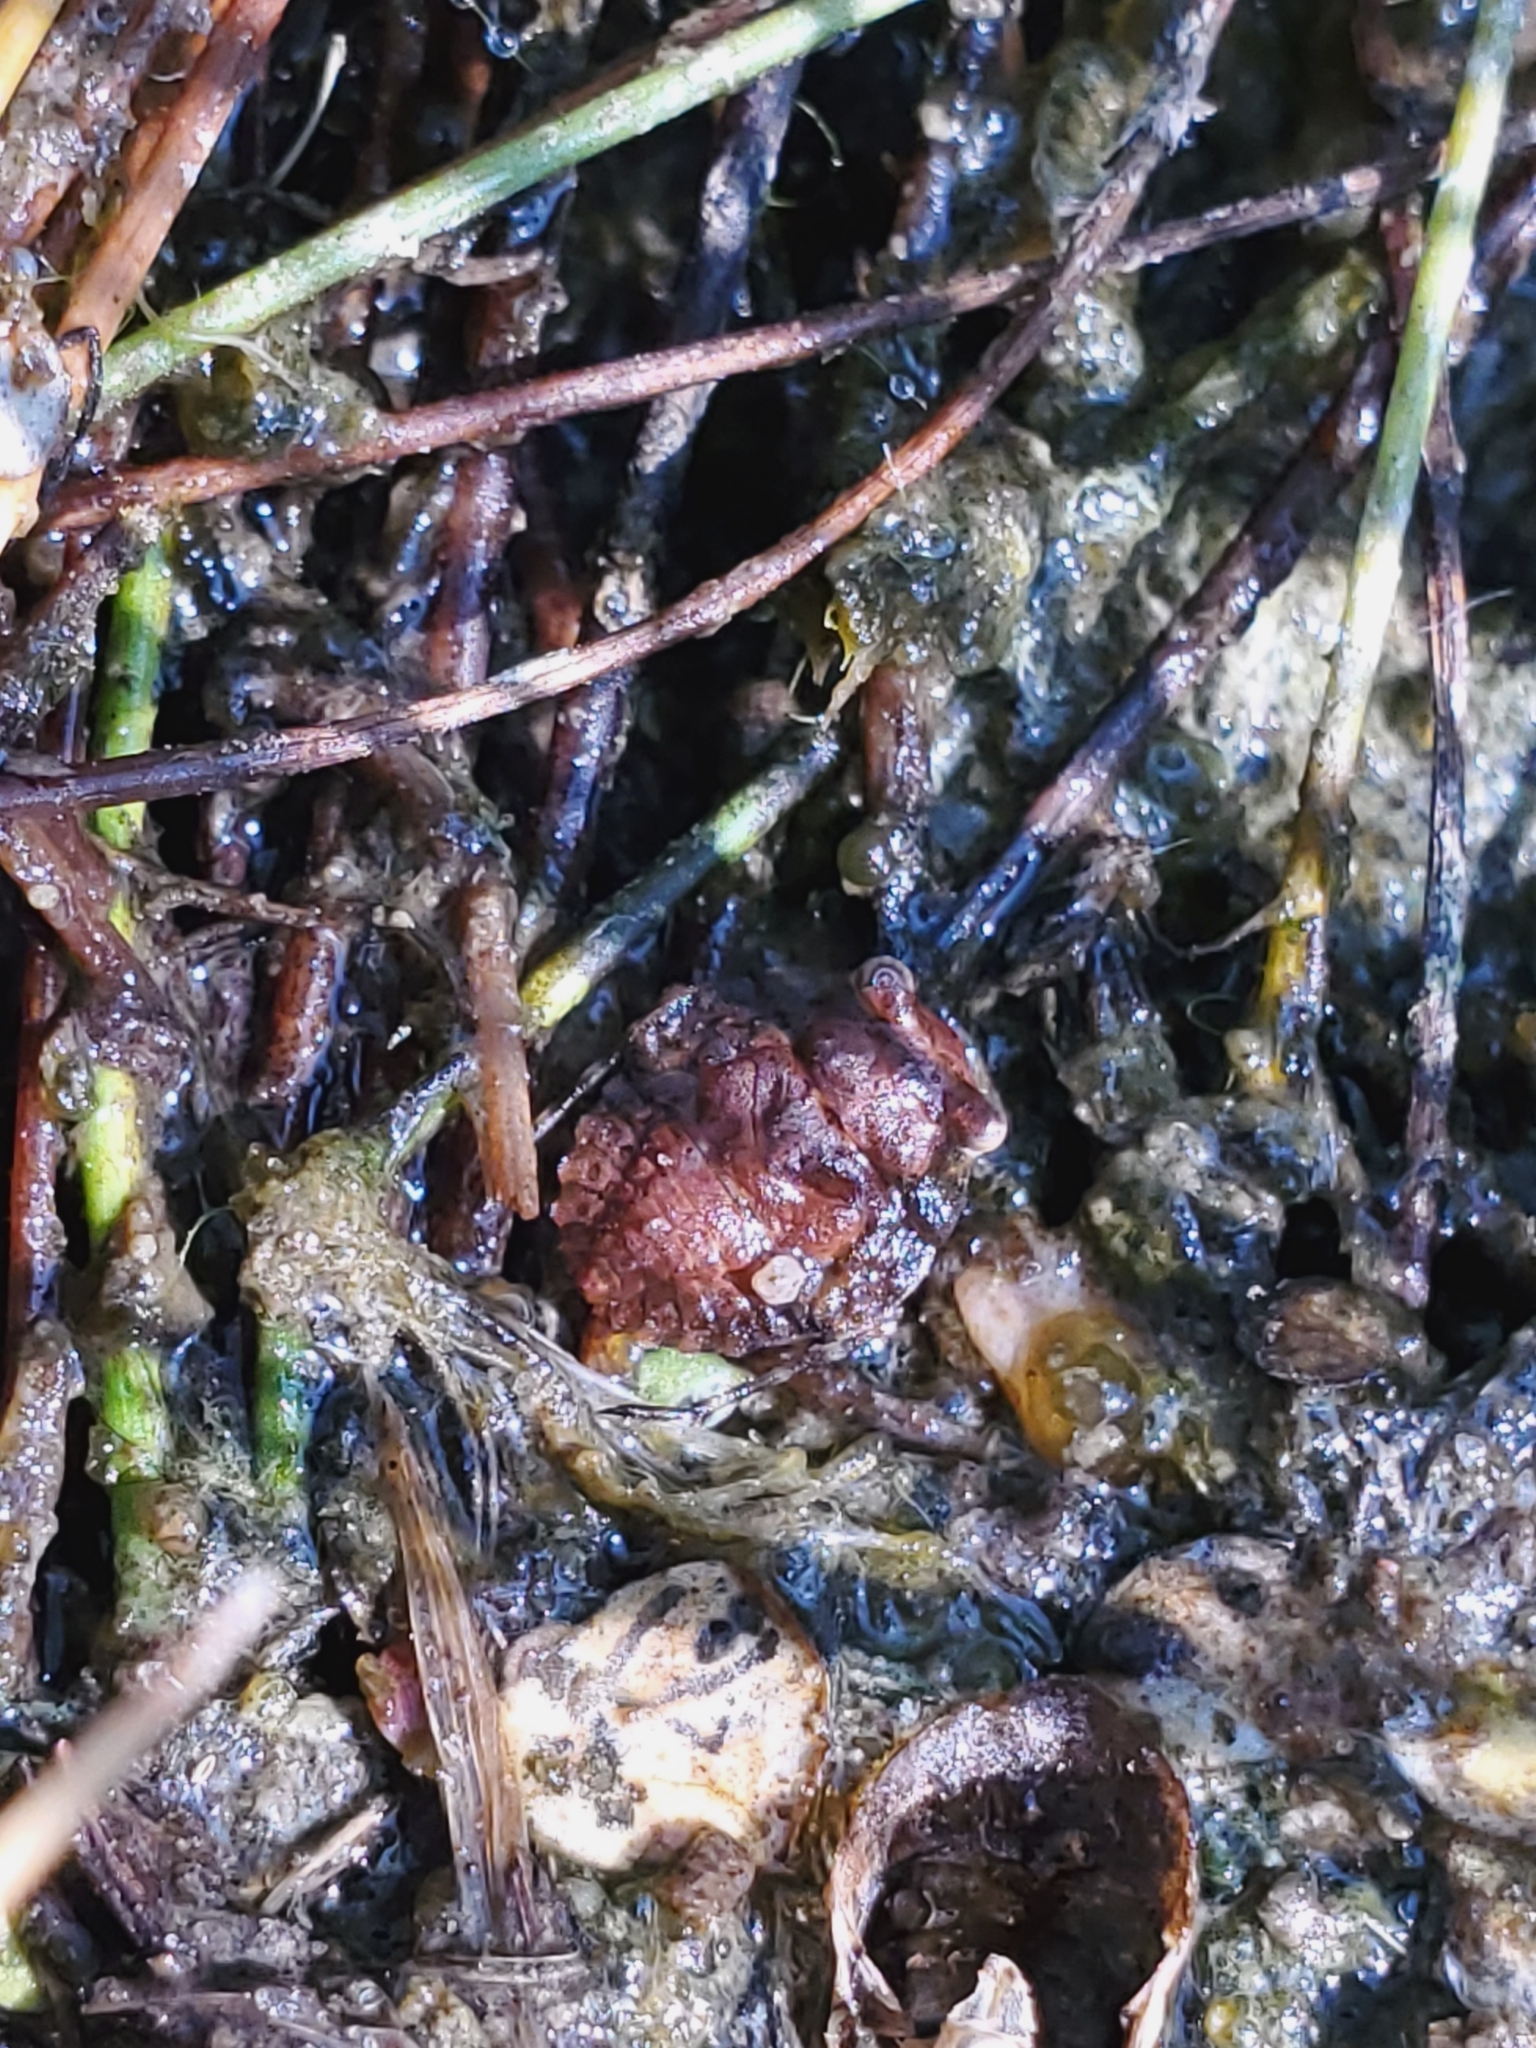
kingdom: Animalia
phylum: Arthropoda
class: Insecta
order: Hemiptera
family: Gelastocoridae
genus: Gelastocoris
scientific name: Gelastocoris oculatus
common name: Toad bug
